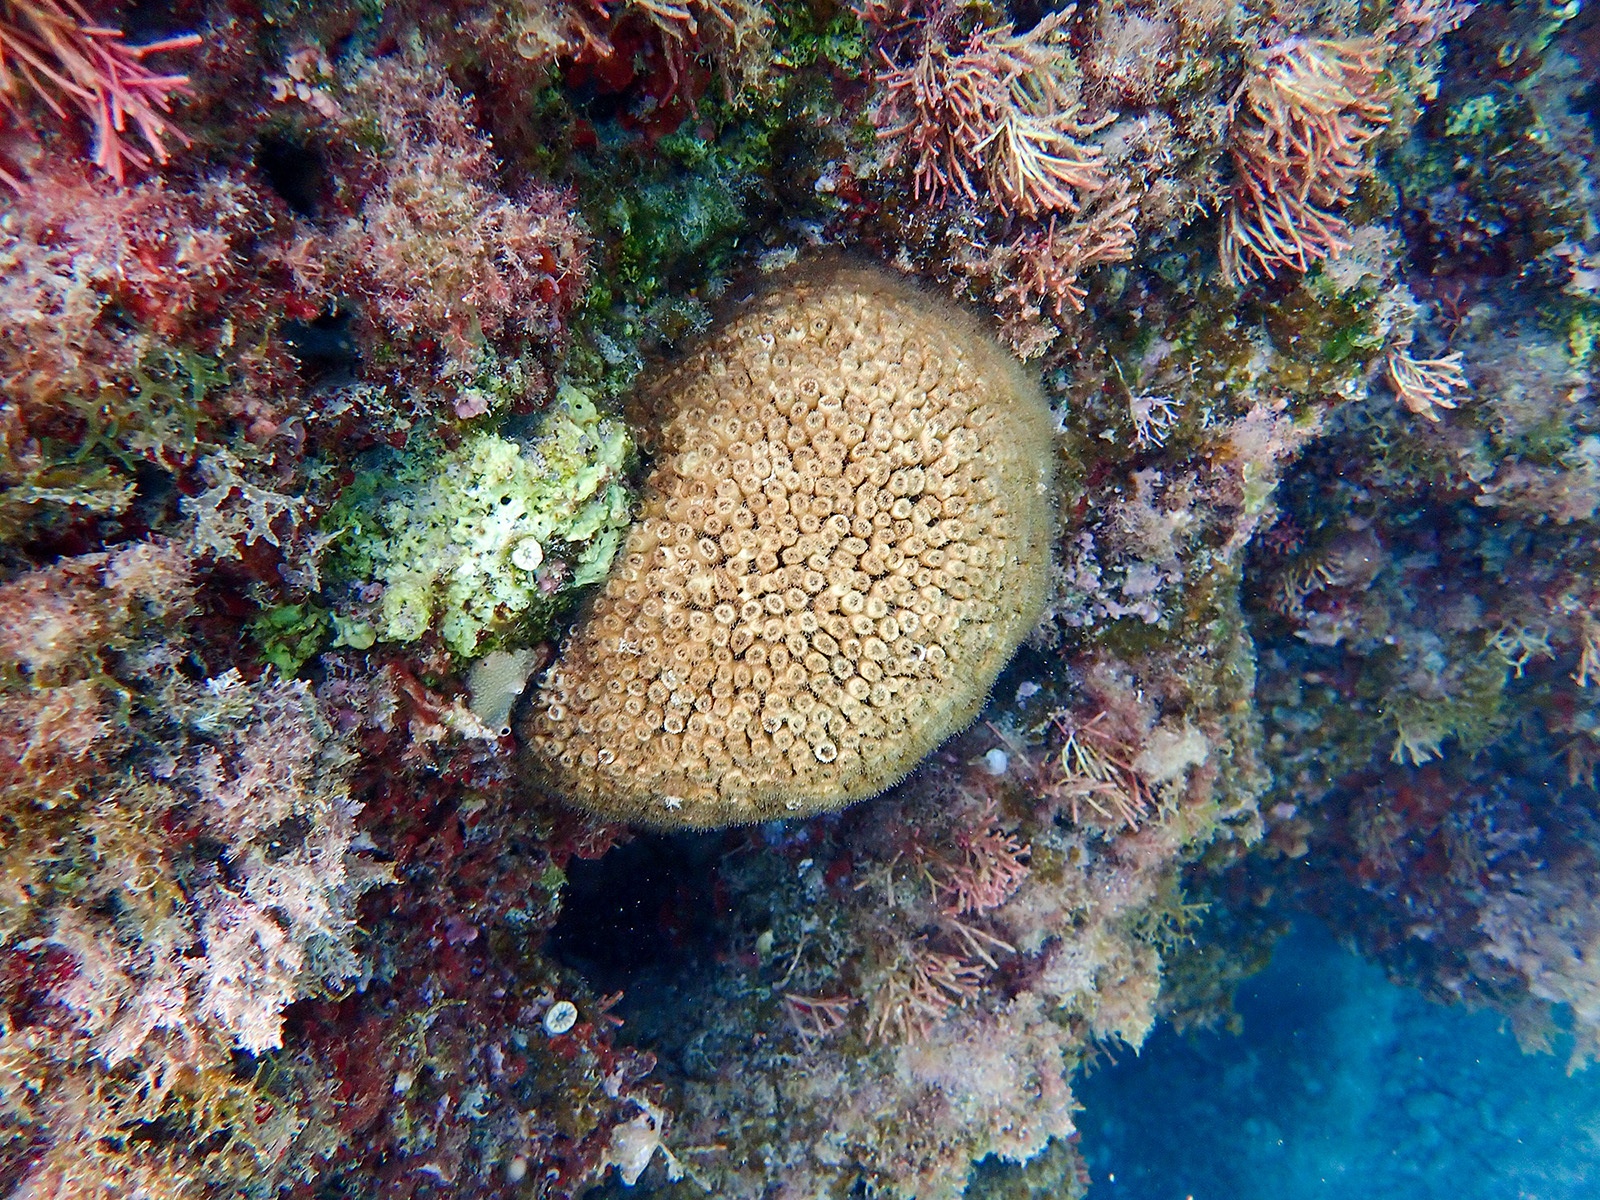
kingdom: Animalia
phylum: Cnidaria
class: Anthozoa
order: Scleractinia
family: Cladocoridae
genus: Cladocora
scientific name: Cladocora caespitosa
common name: Cladocora
